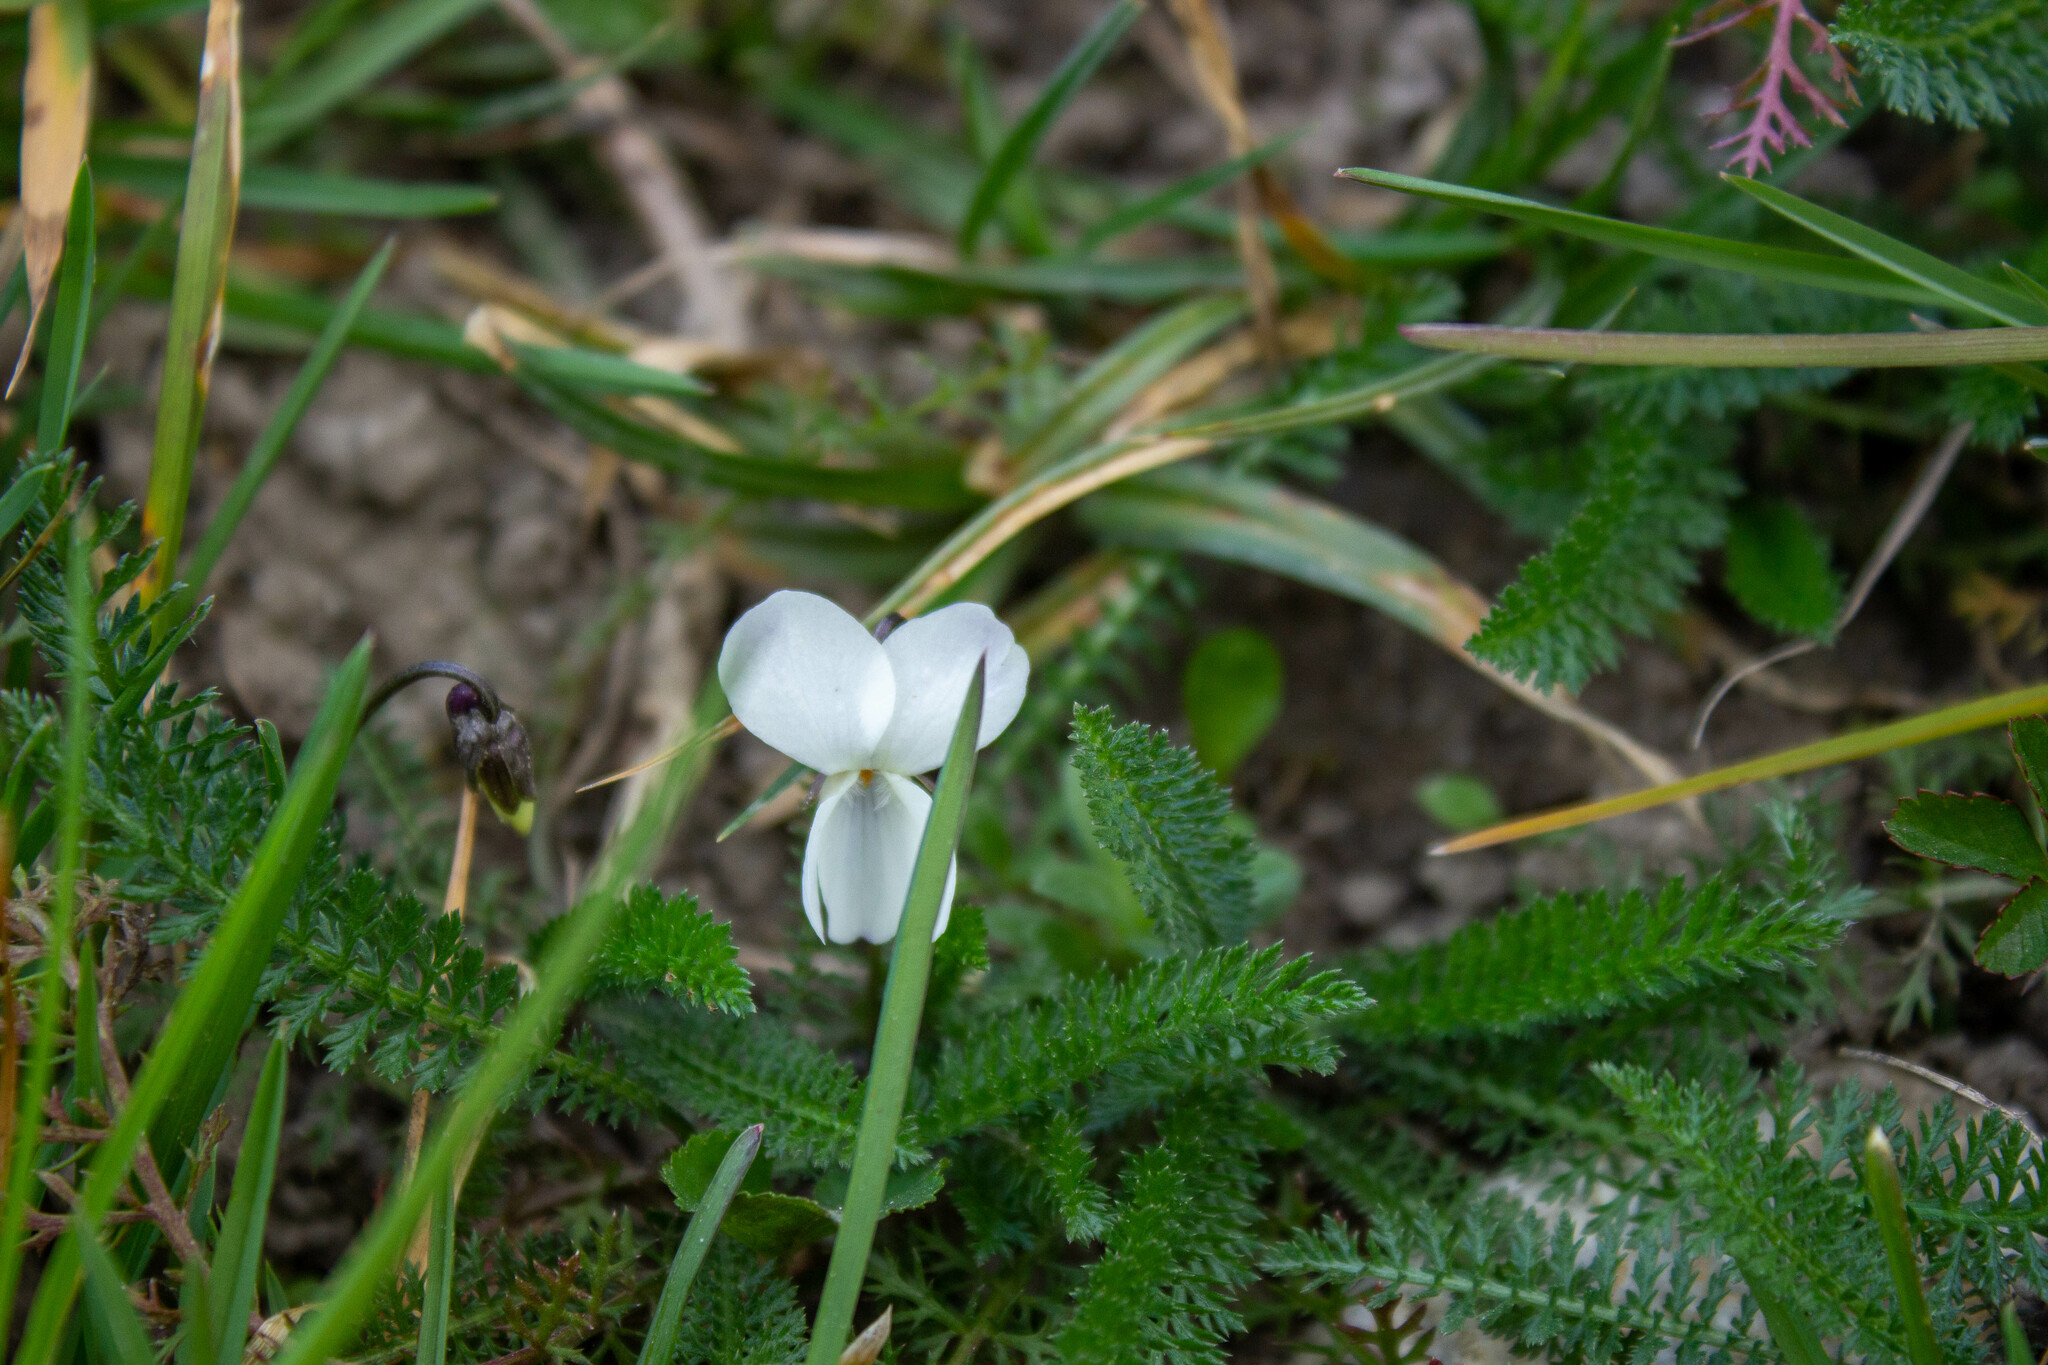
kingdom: Plantae
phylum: Tracheophyta
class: Magnoliopsida
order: Malpighiales
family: Violaceae
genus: Viola
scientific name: Viola alba
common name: White violet
